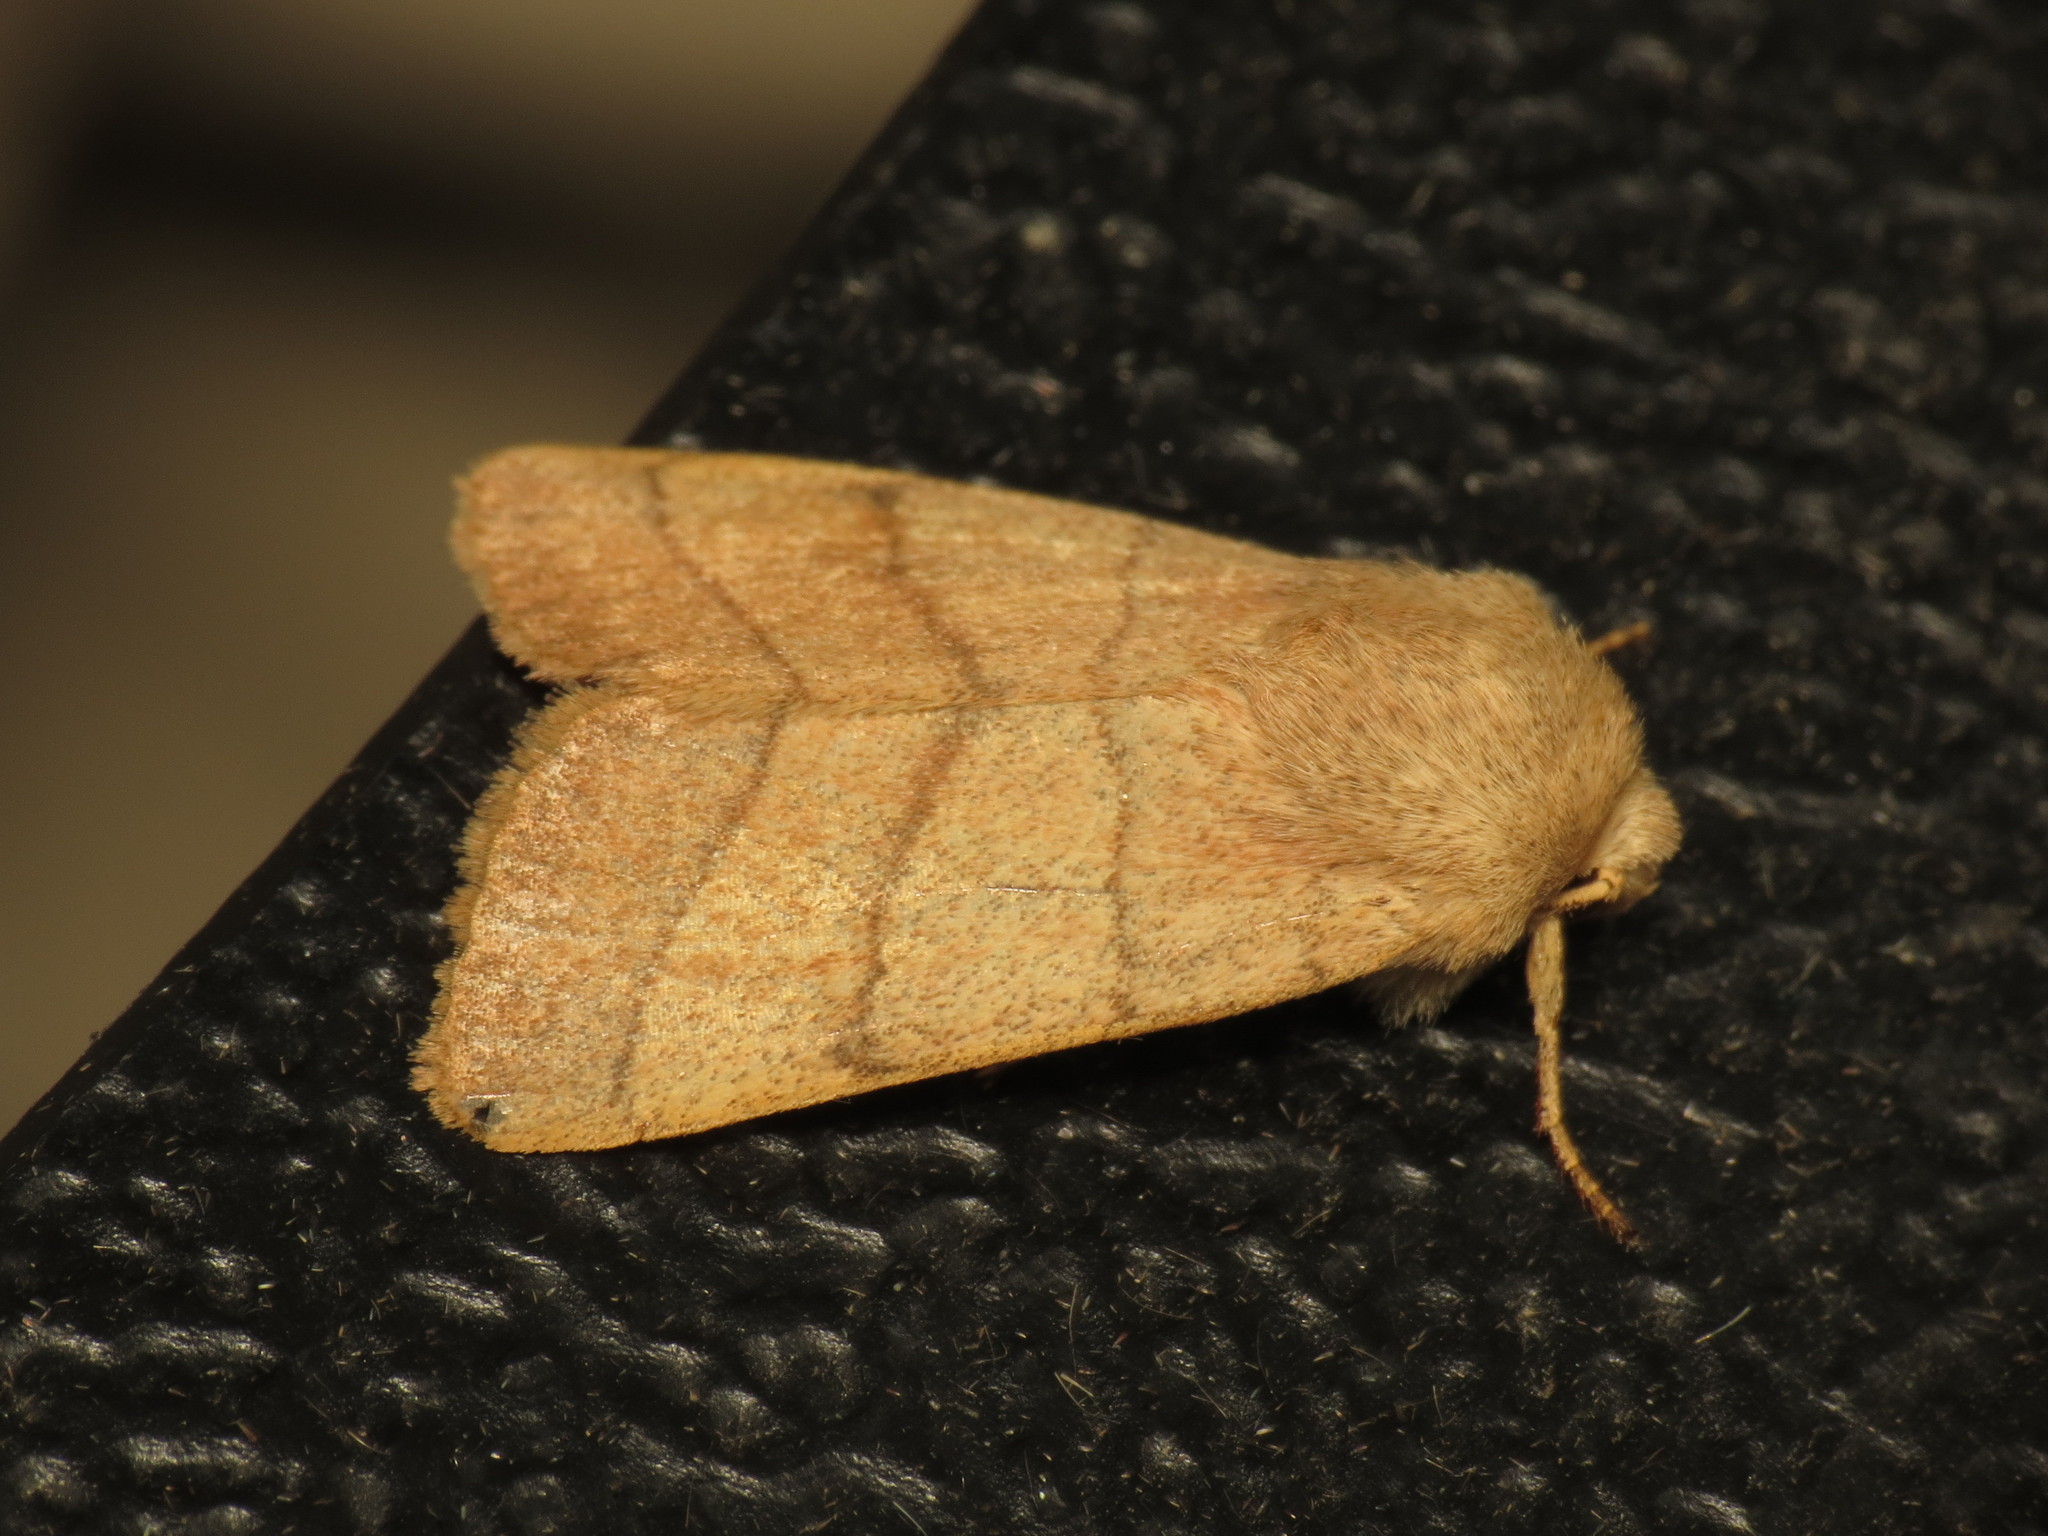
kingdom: Animalia
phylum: Arthropoda
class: Insecta
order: Lepidoptera
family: Noctuidae
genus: Charanyca
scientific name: Charanyca trigrammica
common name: Treble lines
